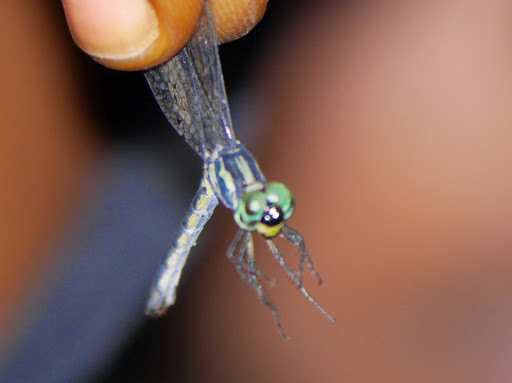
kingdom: Animalia
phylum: Arthropoda
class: Insecta
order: Odonata
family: Libellulidae
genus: Micromacromia
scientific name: Micromacromia camerunica
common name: Stream micmac
